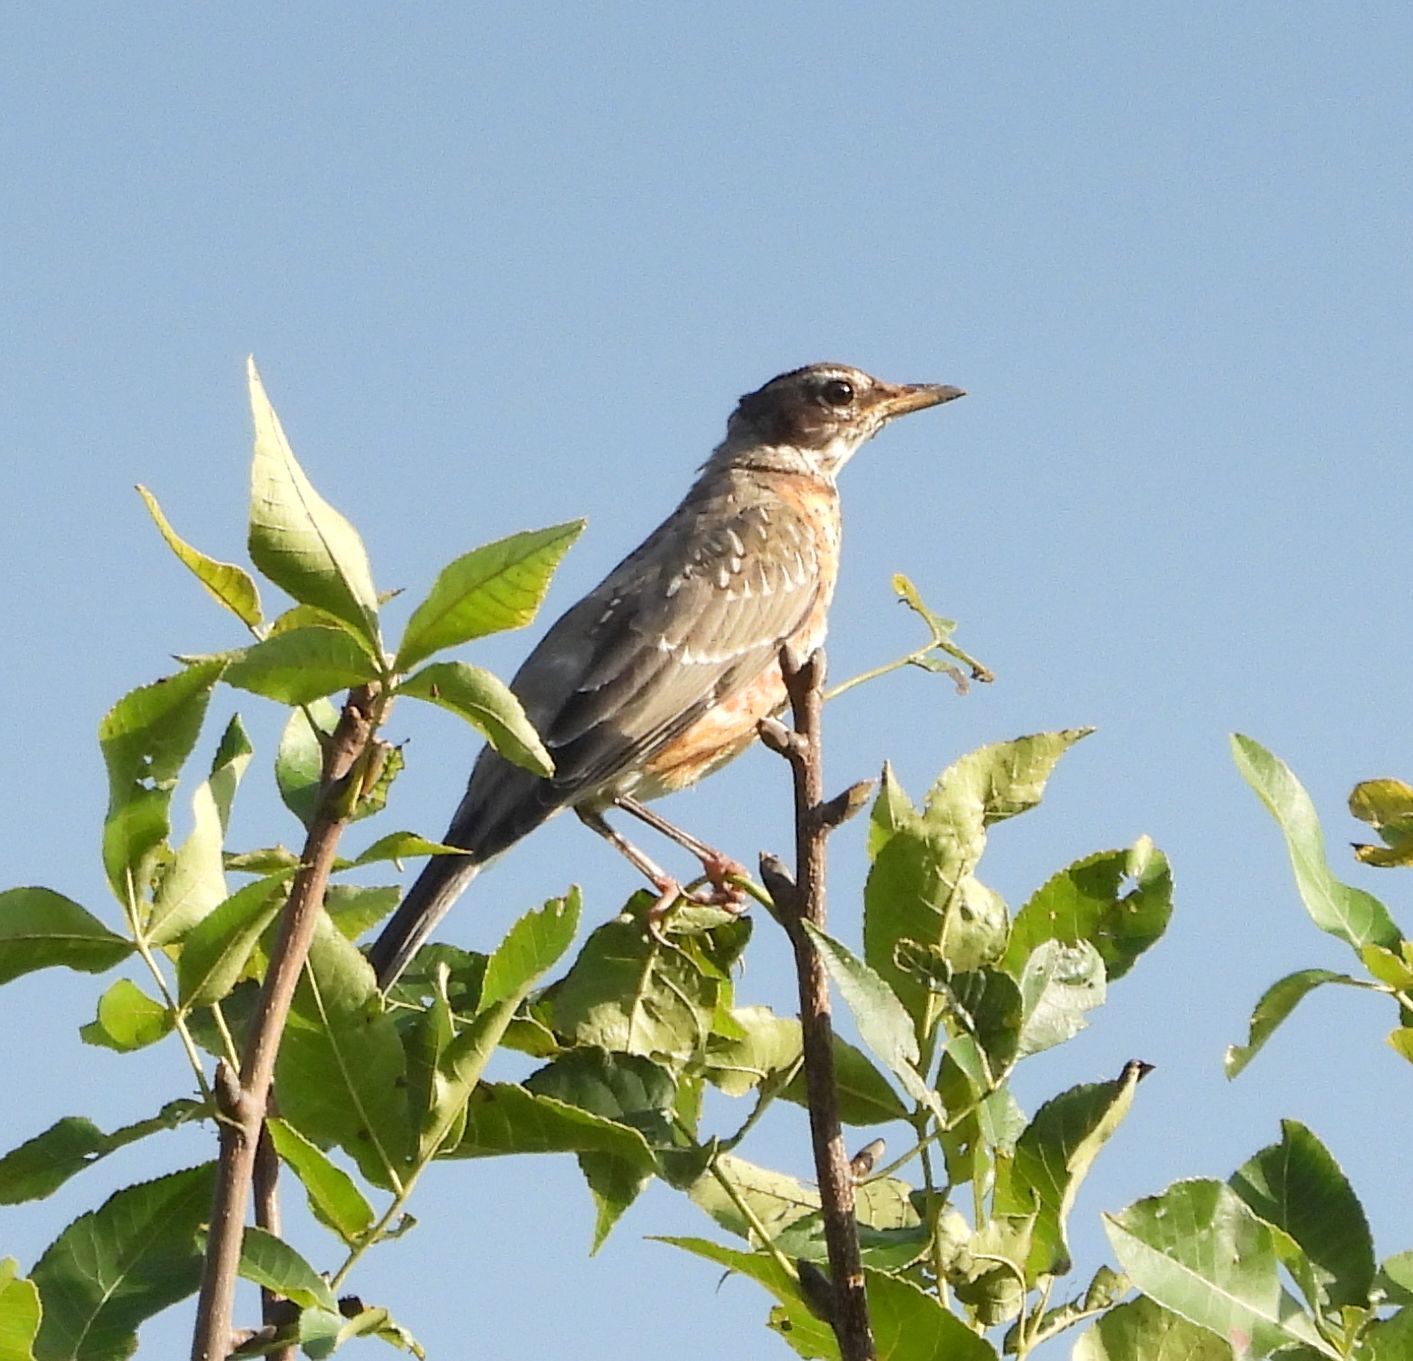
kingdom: Animalia
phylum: Chordata
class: Aves
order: Passeriformes
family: Turdidae
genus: Turdus
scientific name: Turdus migratorius
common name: American robin
